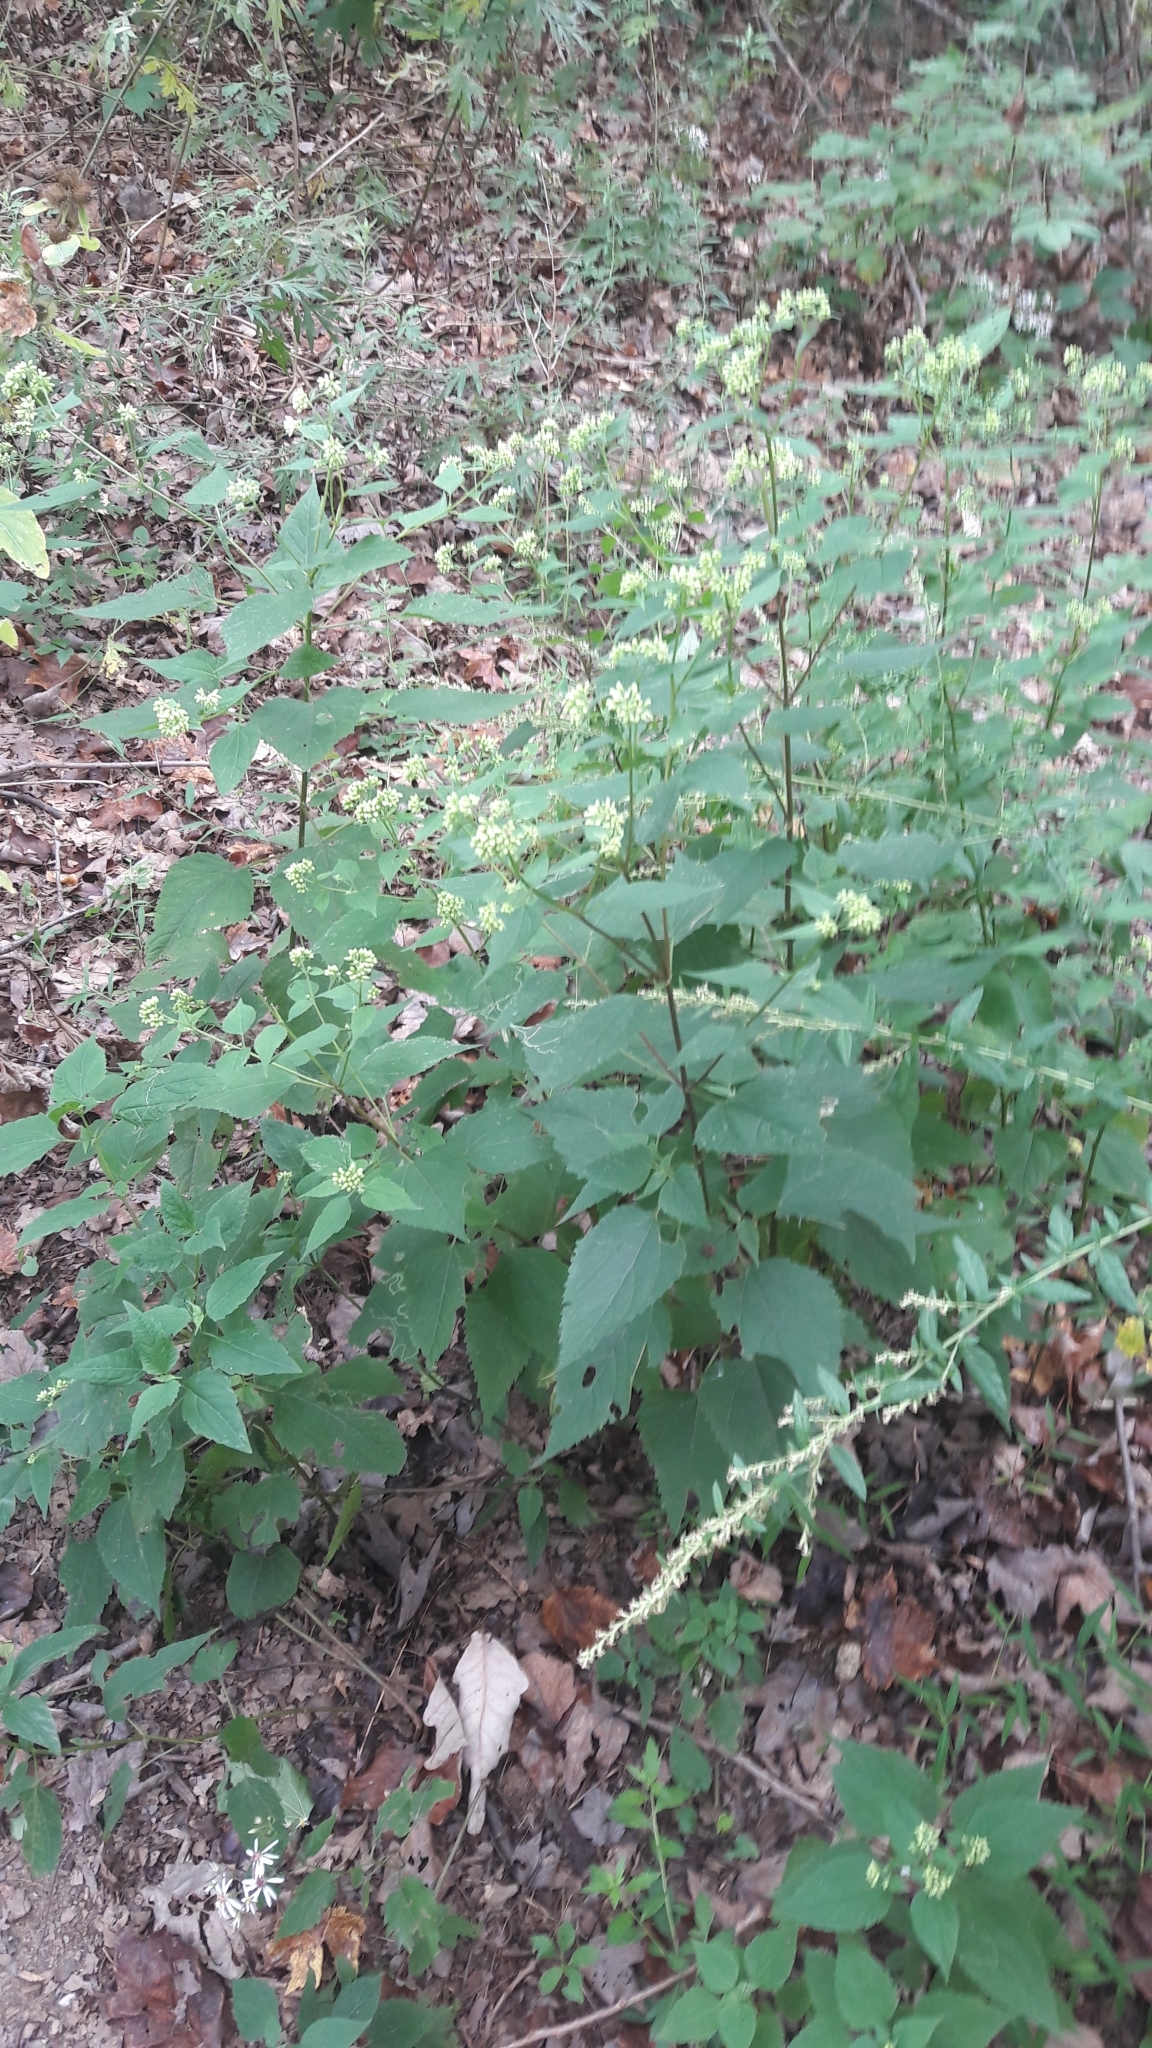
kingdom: Plantae
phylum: Tracheophyta
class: Magnoliopsida
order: Asterales
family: Asteraceae
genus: Ageratina
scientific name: Ageratina altissima
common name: White snakeroot
